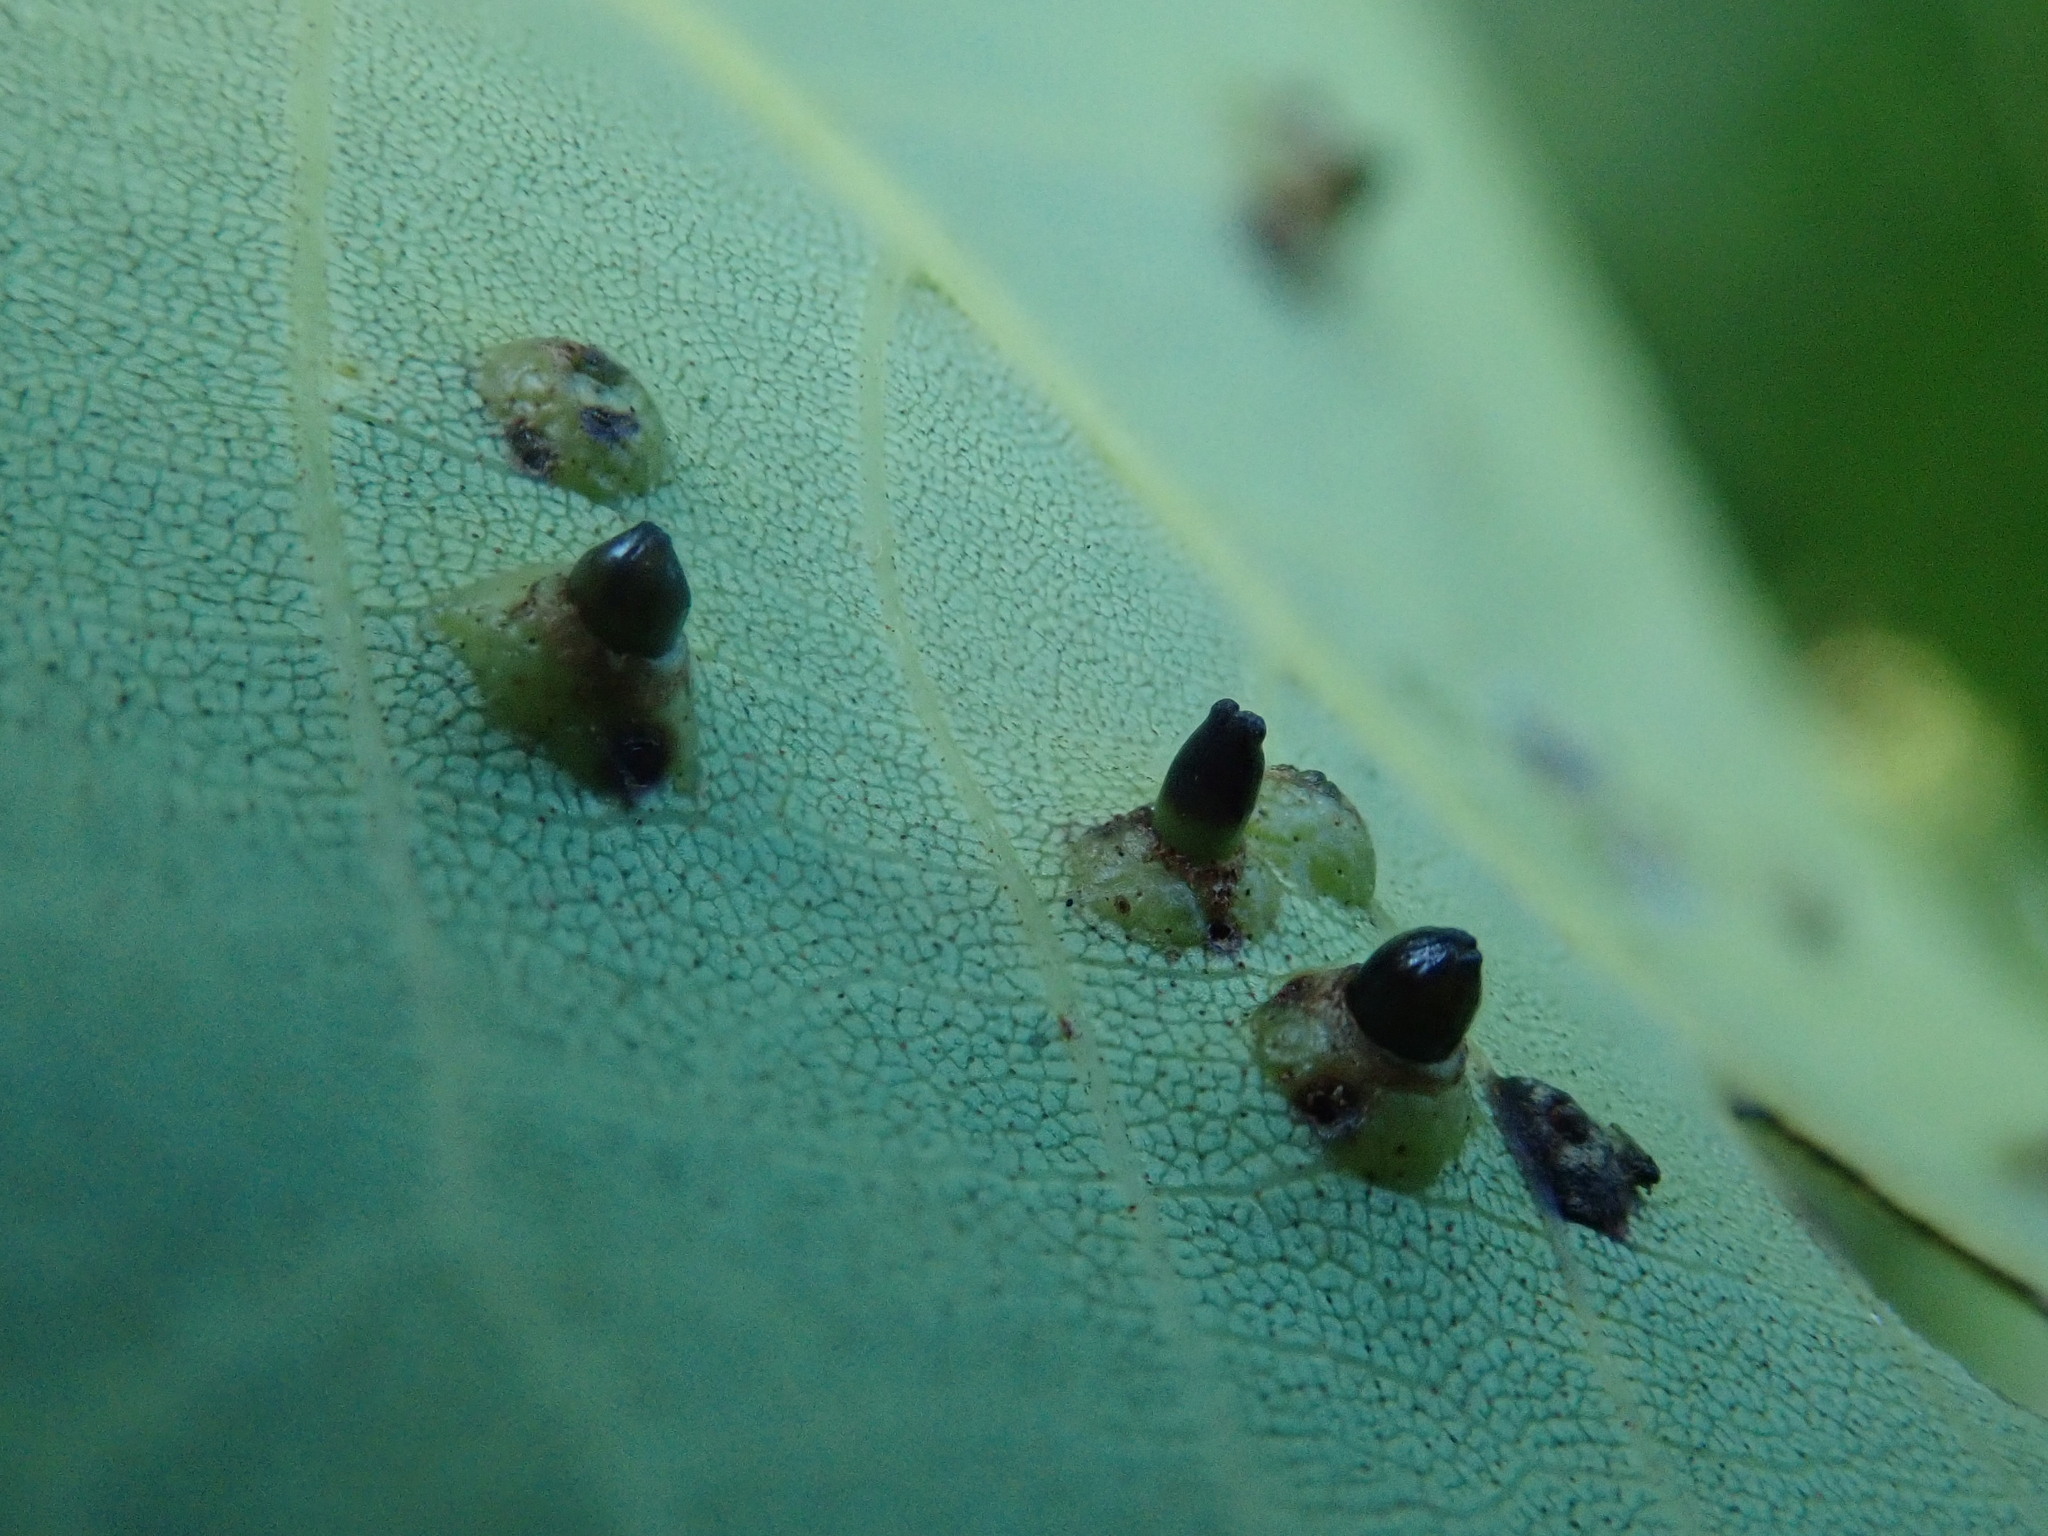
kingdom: Animalia
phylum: Arthropoda
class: Insecta
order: Diptera
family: Cecidomyiidae
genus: Caryomyia
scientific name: Caryomyia tubicola
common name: Hickory bullet gall midge
